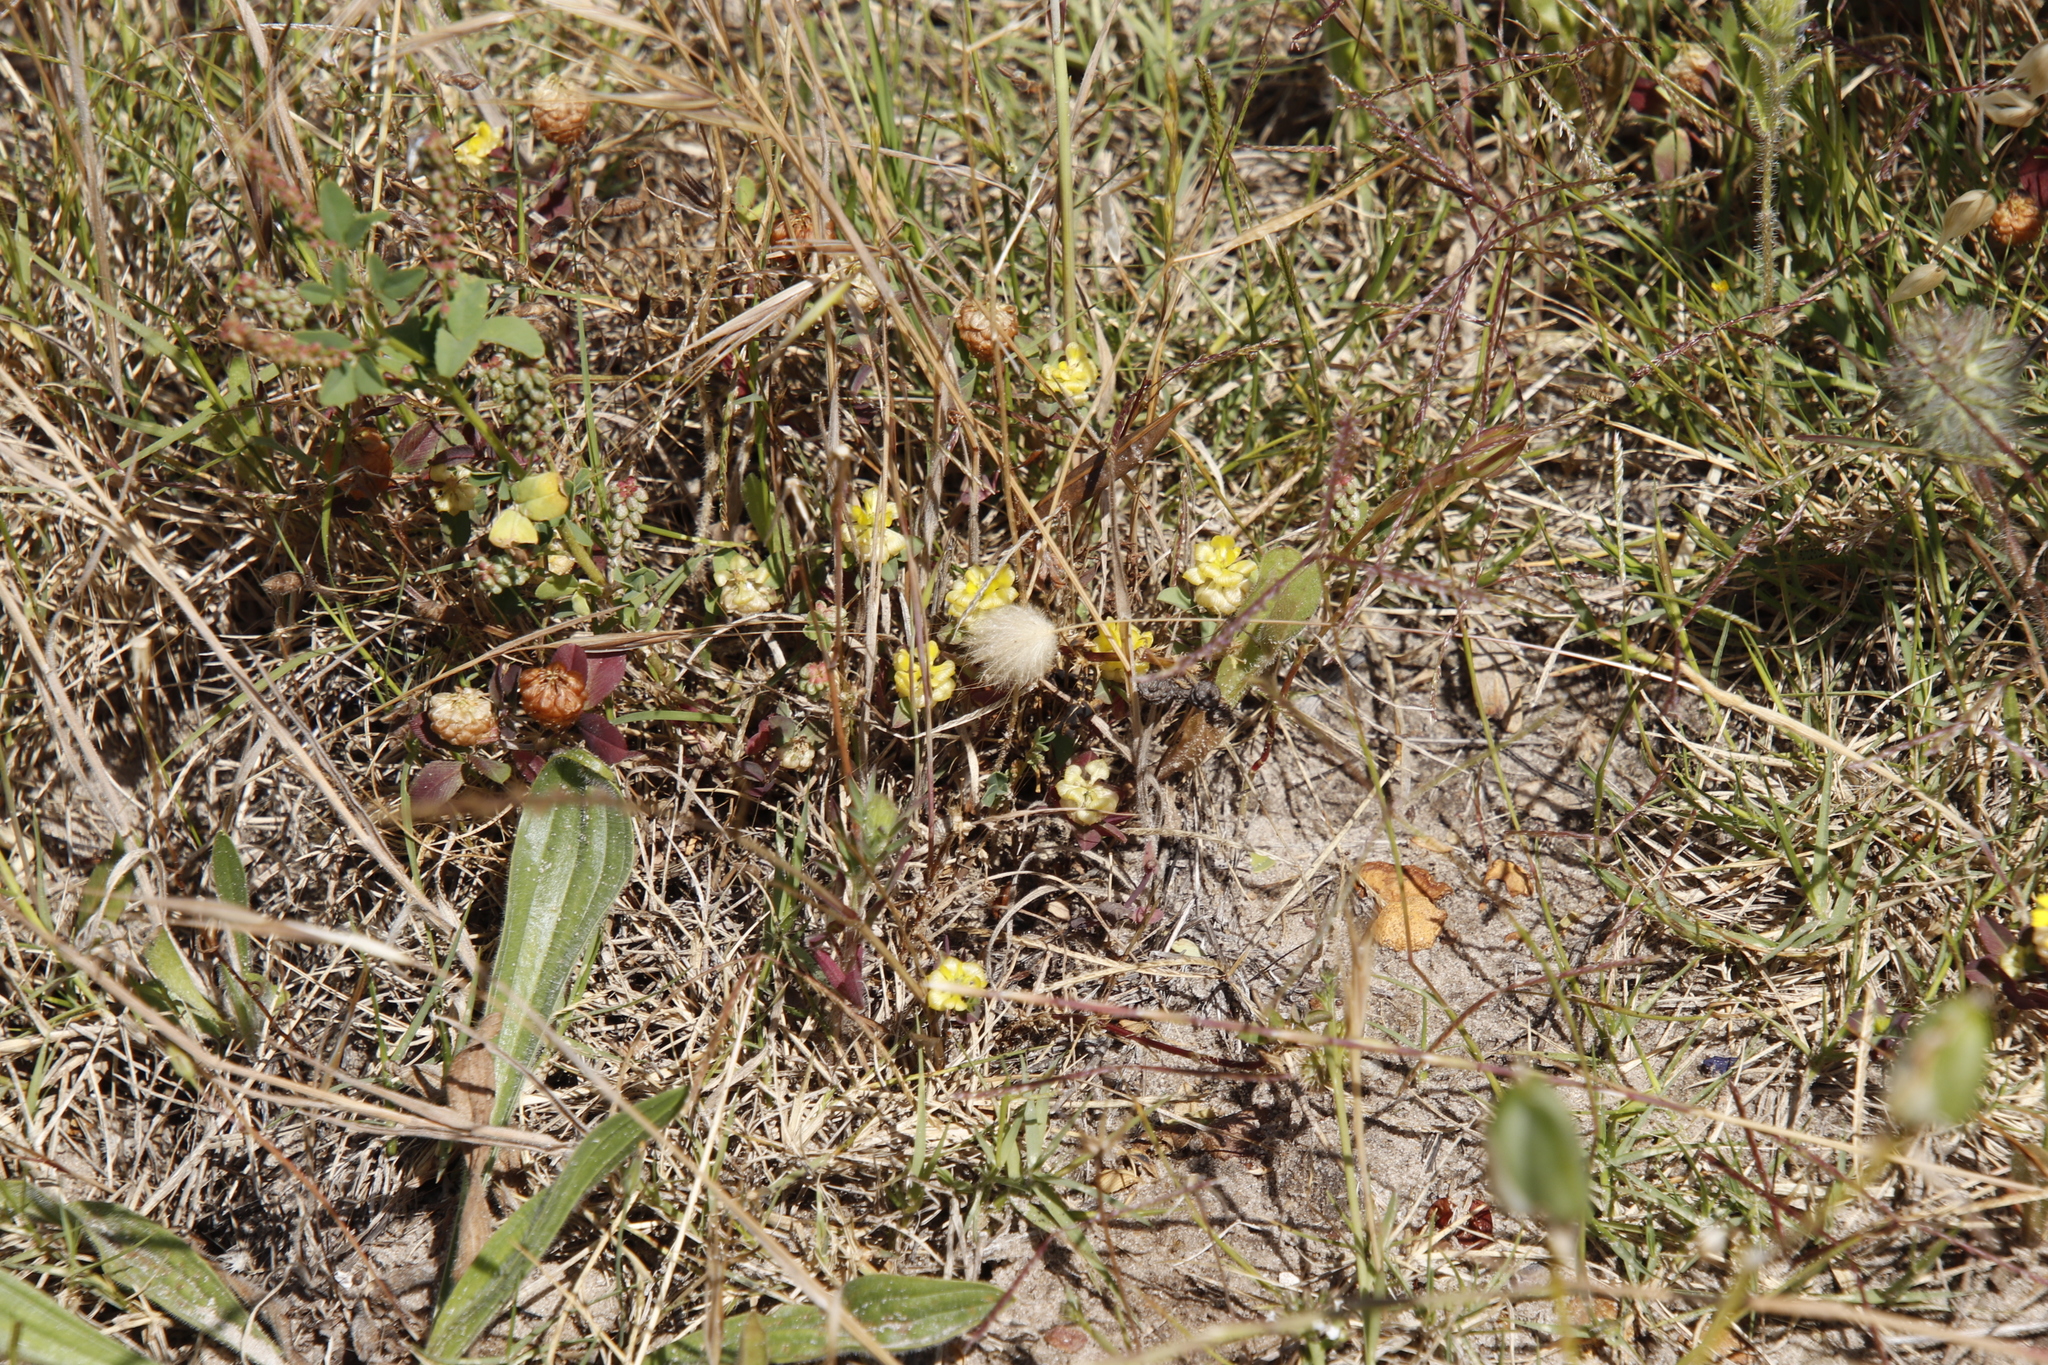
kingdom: Plantae
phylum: Tracheophyta
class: Magnoliopsida
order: Fabales
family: Fabaceae
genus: Trifolium
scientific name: Trifolium campestre
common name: Field clover
